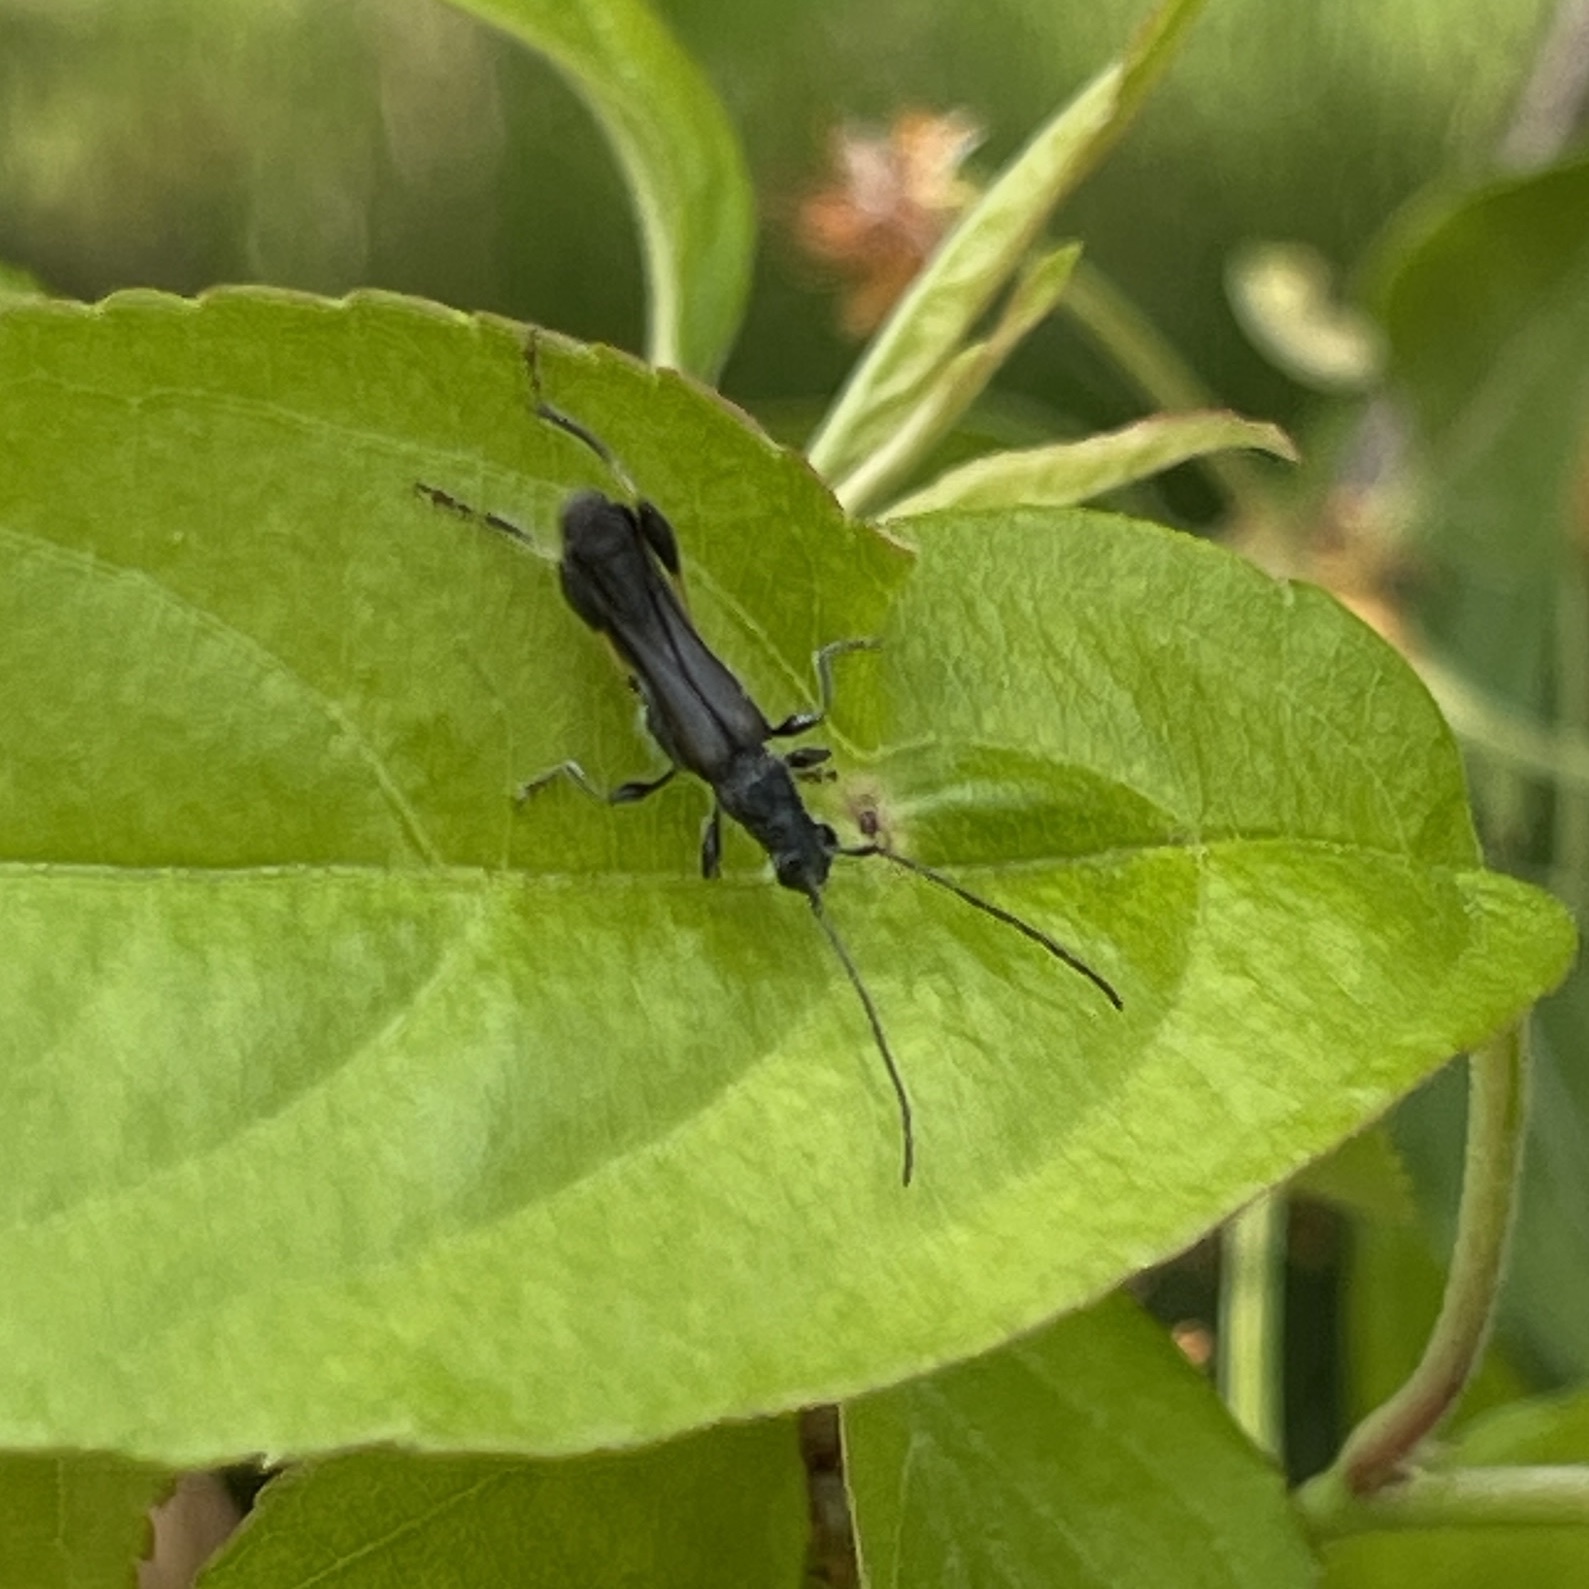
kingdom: Animalia
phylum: Arthropoda
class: Insecta
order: Coleoptera
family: Cerambycidae
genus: Callimoxys
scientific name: Callimoxys sanguinicollis
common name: Blood-necked longhorn beetle
